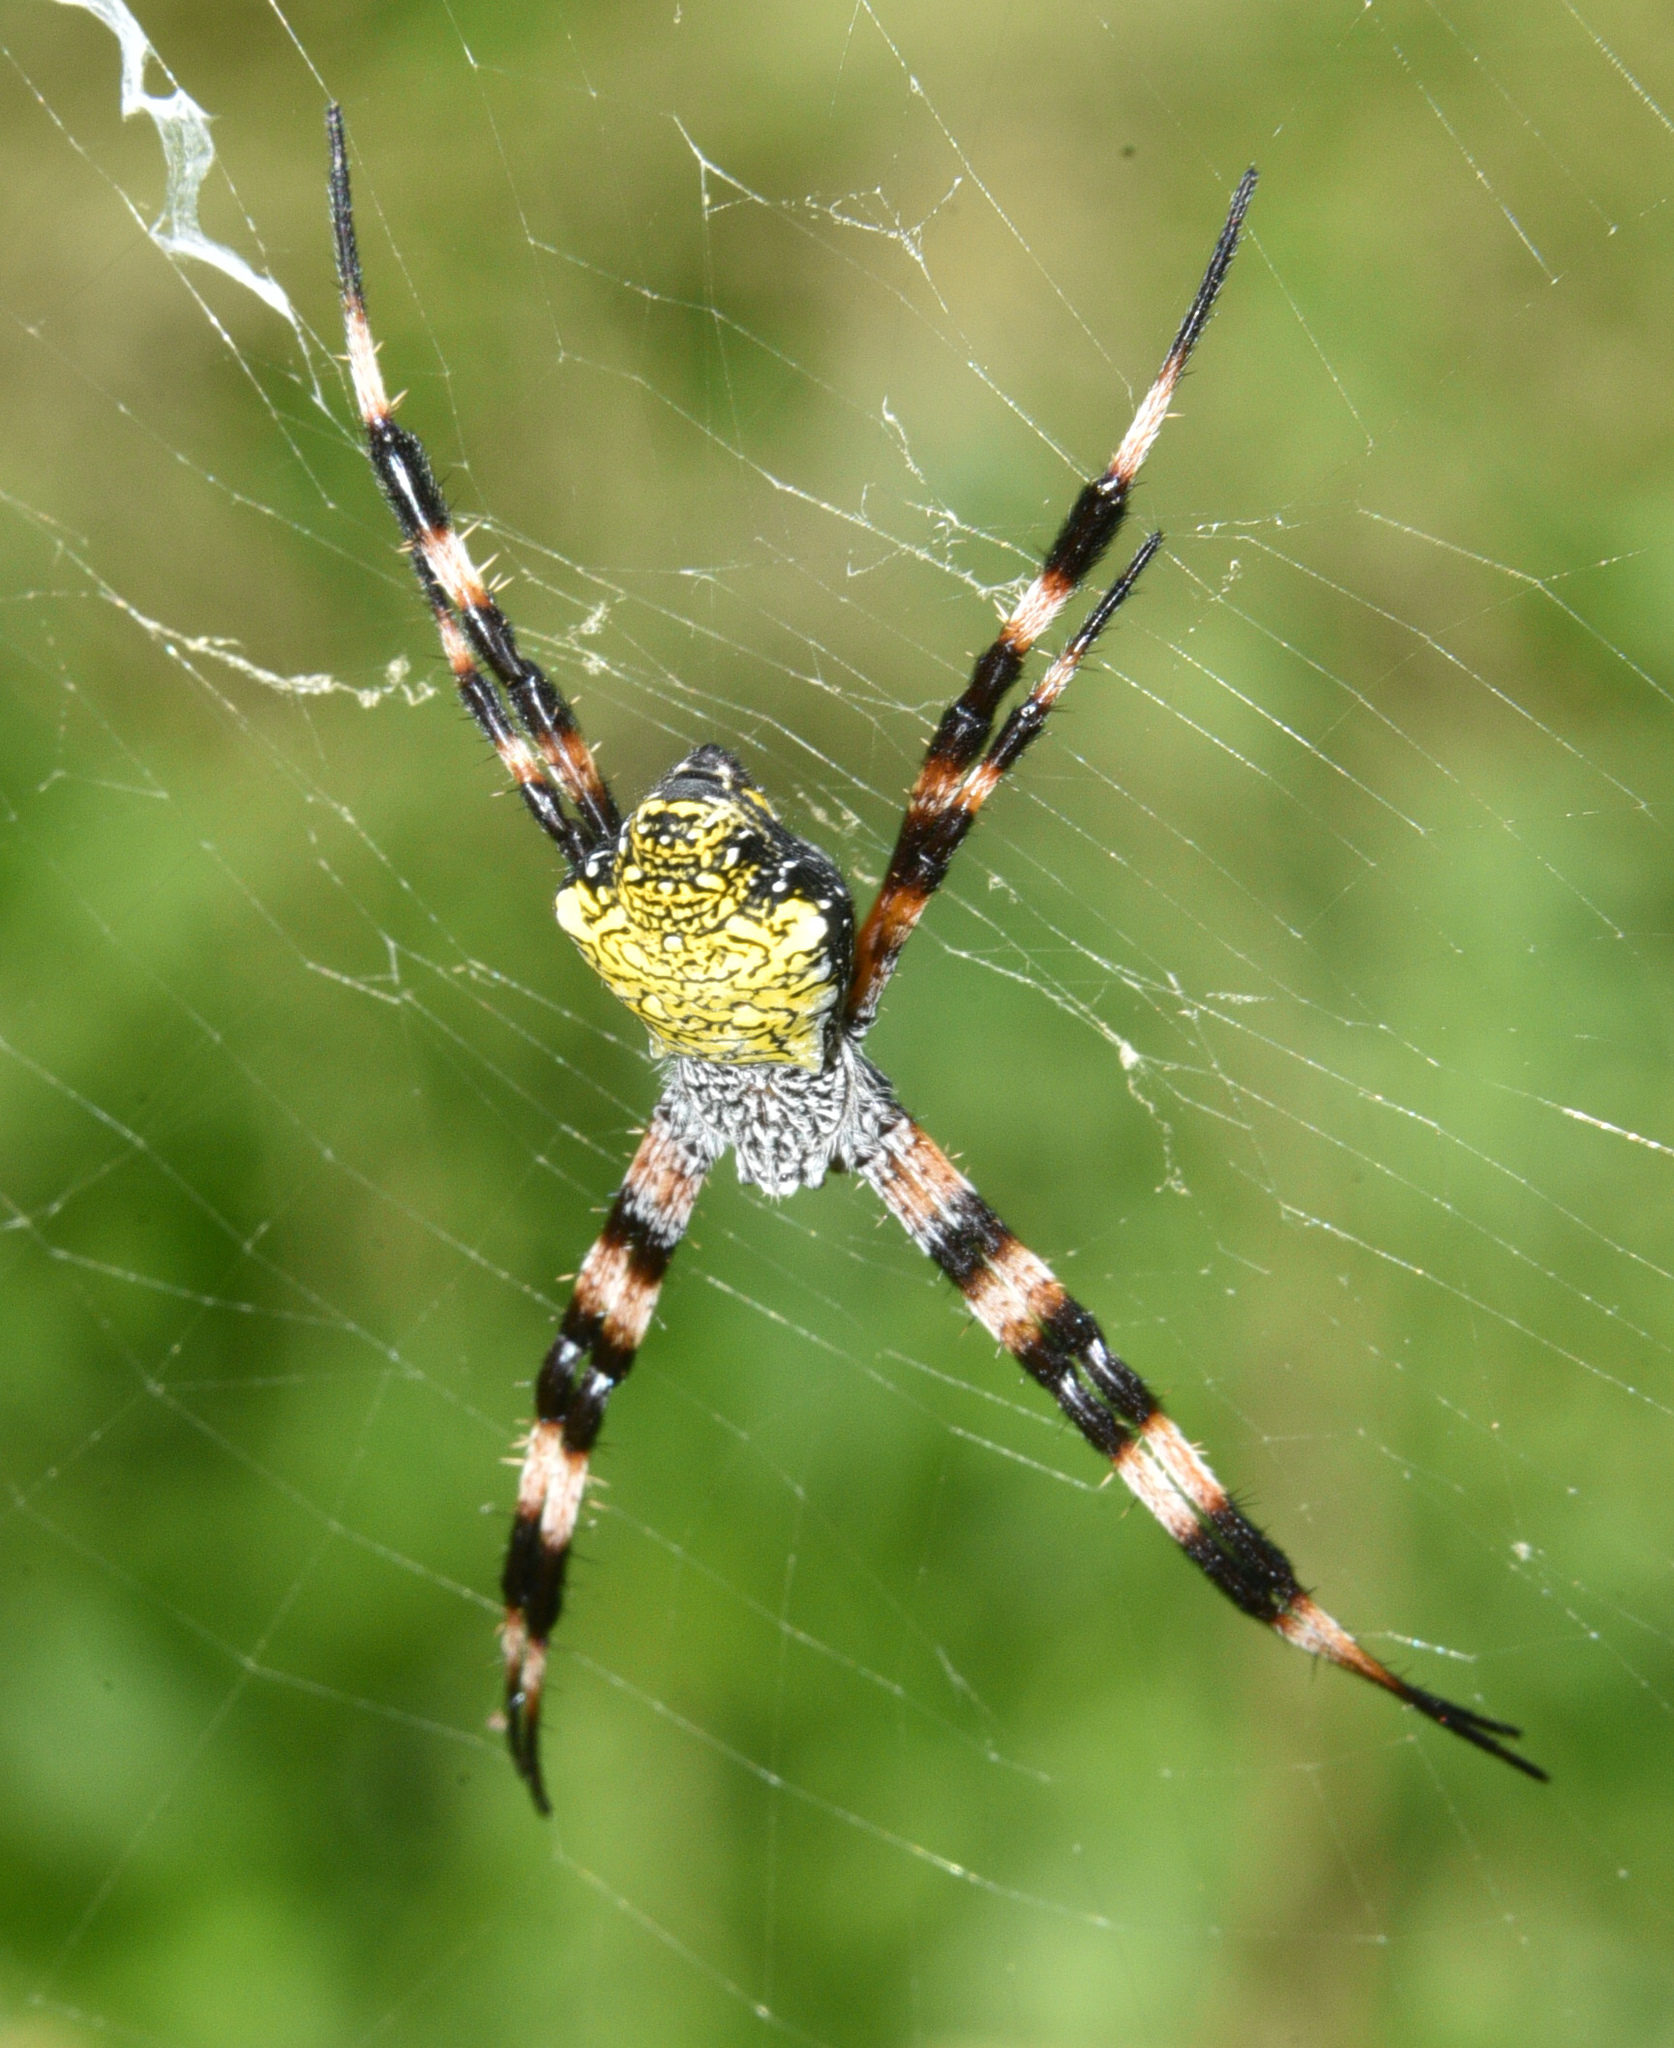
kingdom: Animalia
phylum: Arthropoda
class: Arachnida
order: Araneae
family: Araneidae
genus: Argiope
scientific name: Argiope appensa
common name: Garden spider
